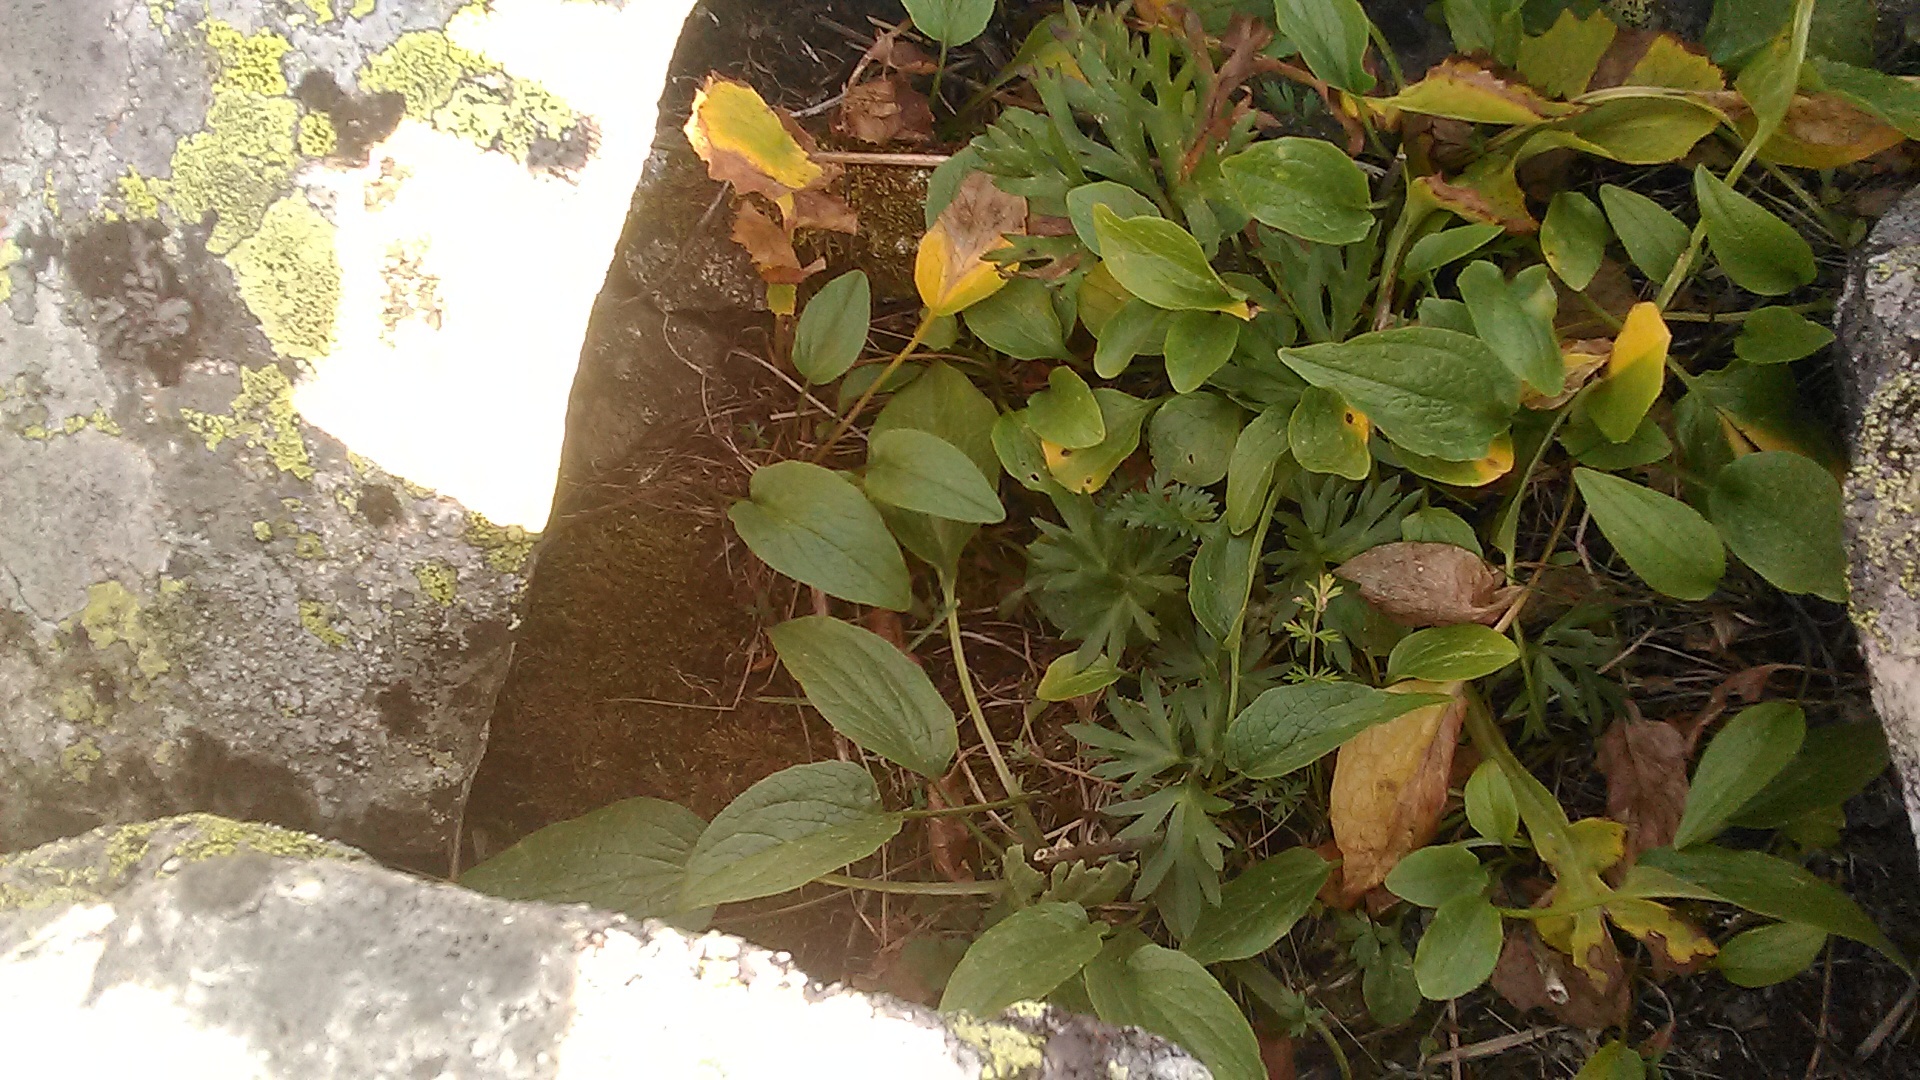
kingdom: Plantae
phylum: Tracheophyta
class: Magnoliopsida
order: Dipsacales
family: Caprifoliaceae
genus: Valeriana
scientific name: Valeriana alpestris
